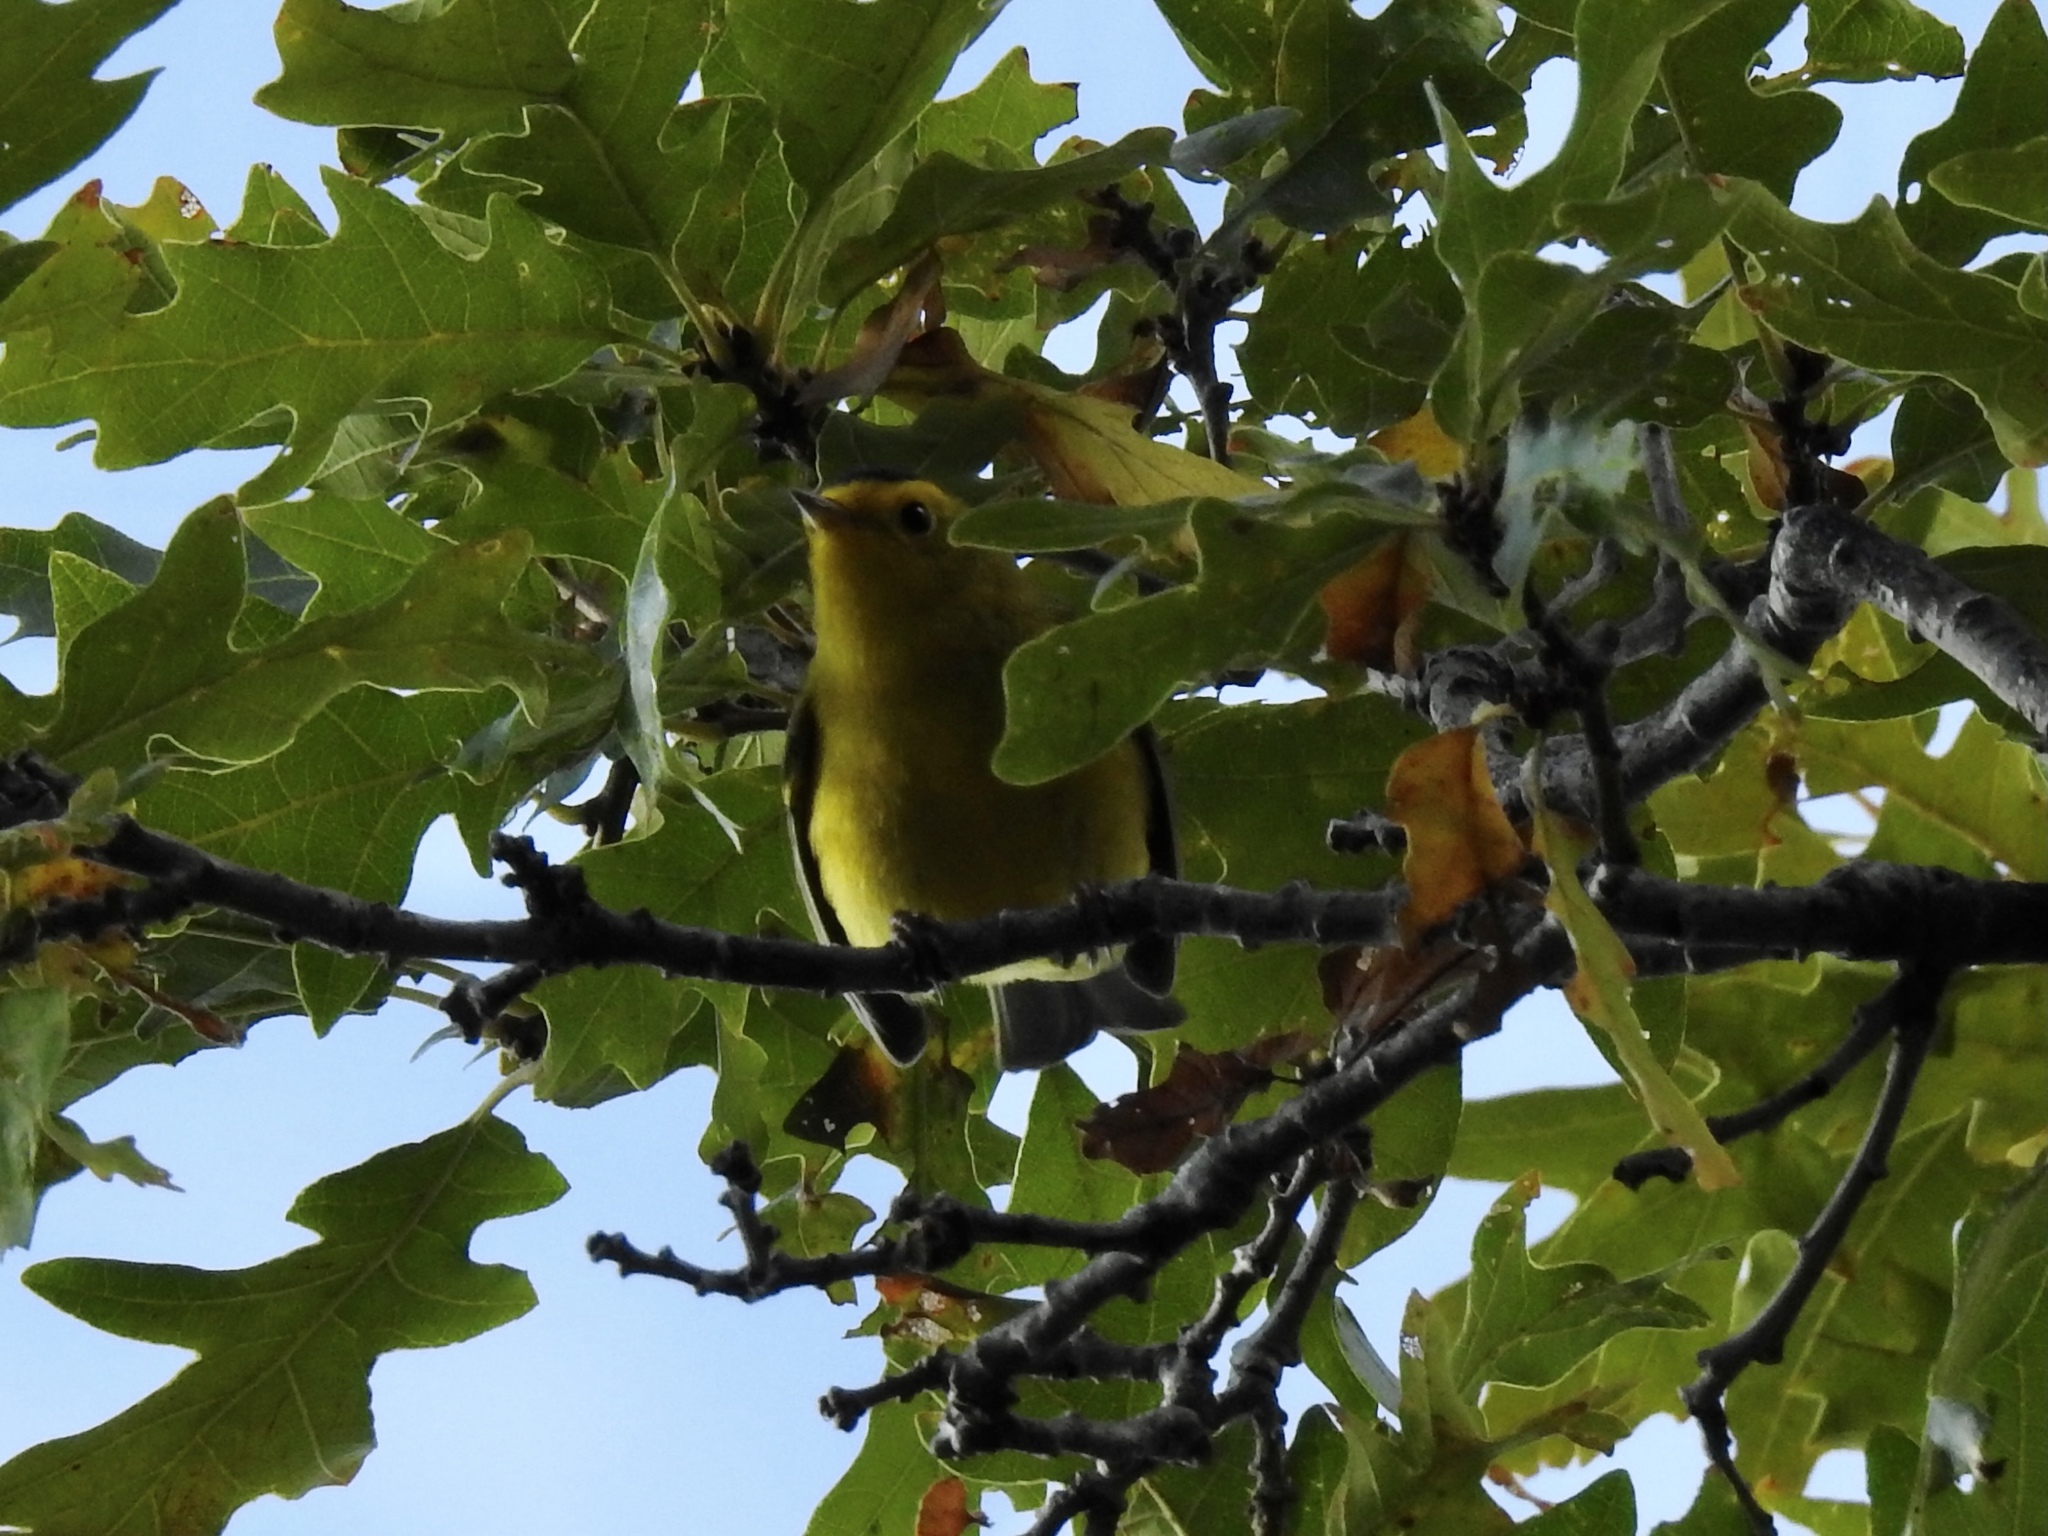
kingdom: Animalia
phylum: Chordata
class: Aves
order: Passeriformes
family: Parulidae
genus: Cardellina
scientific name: Cardellina pusilla
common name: Wilson's warbler
